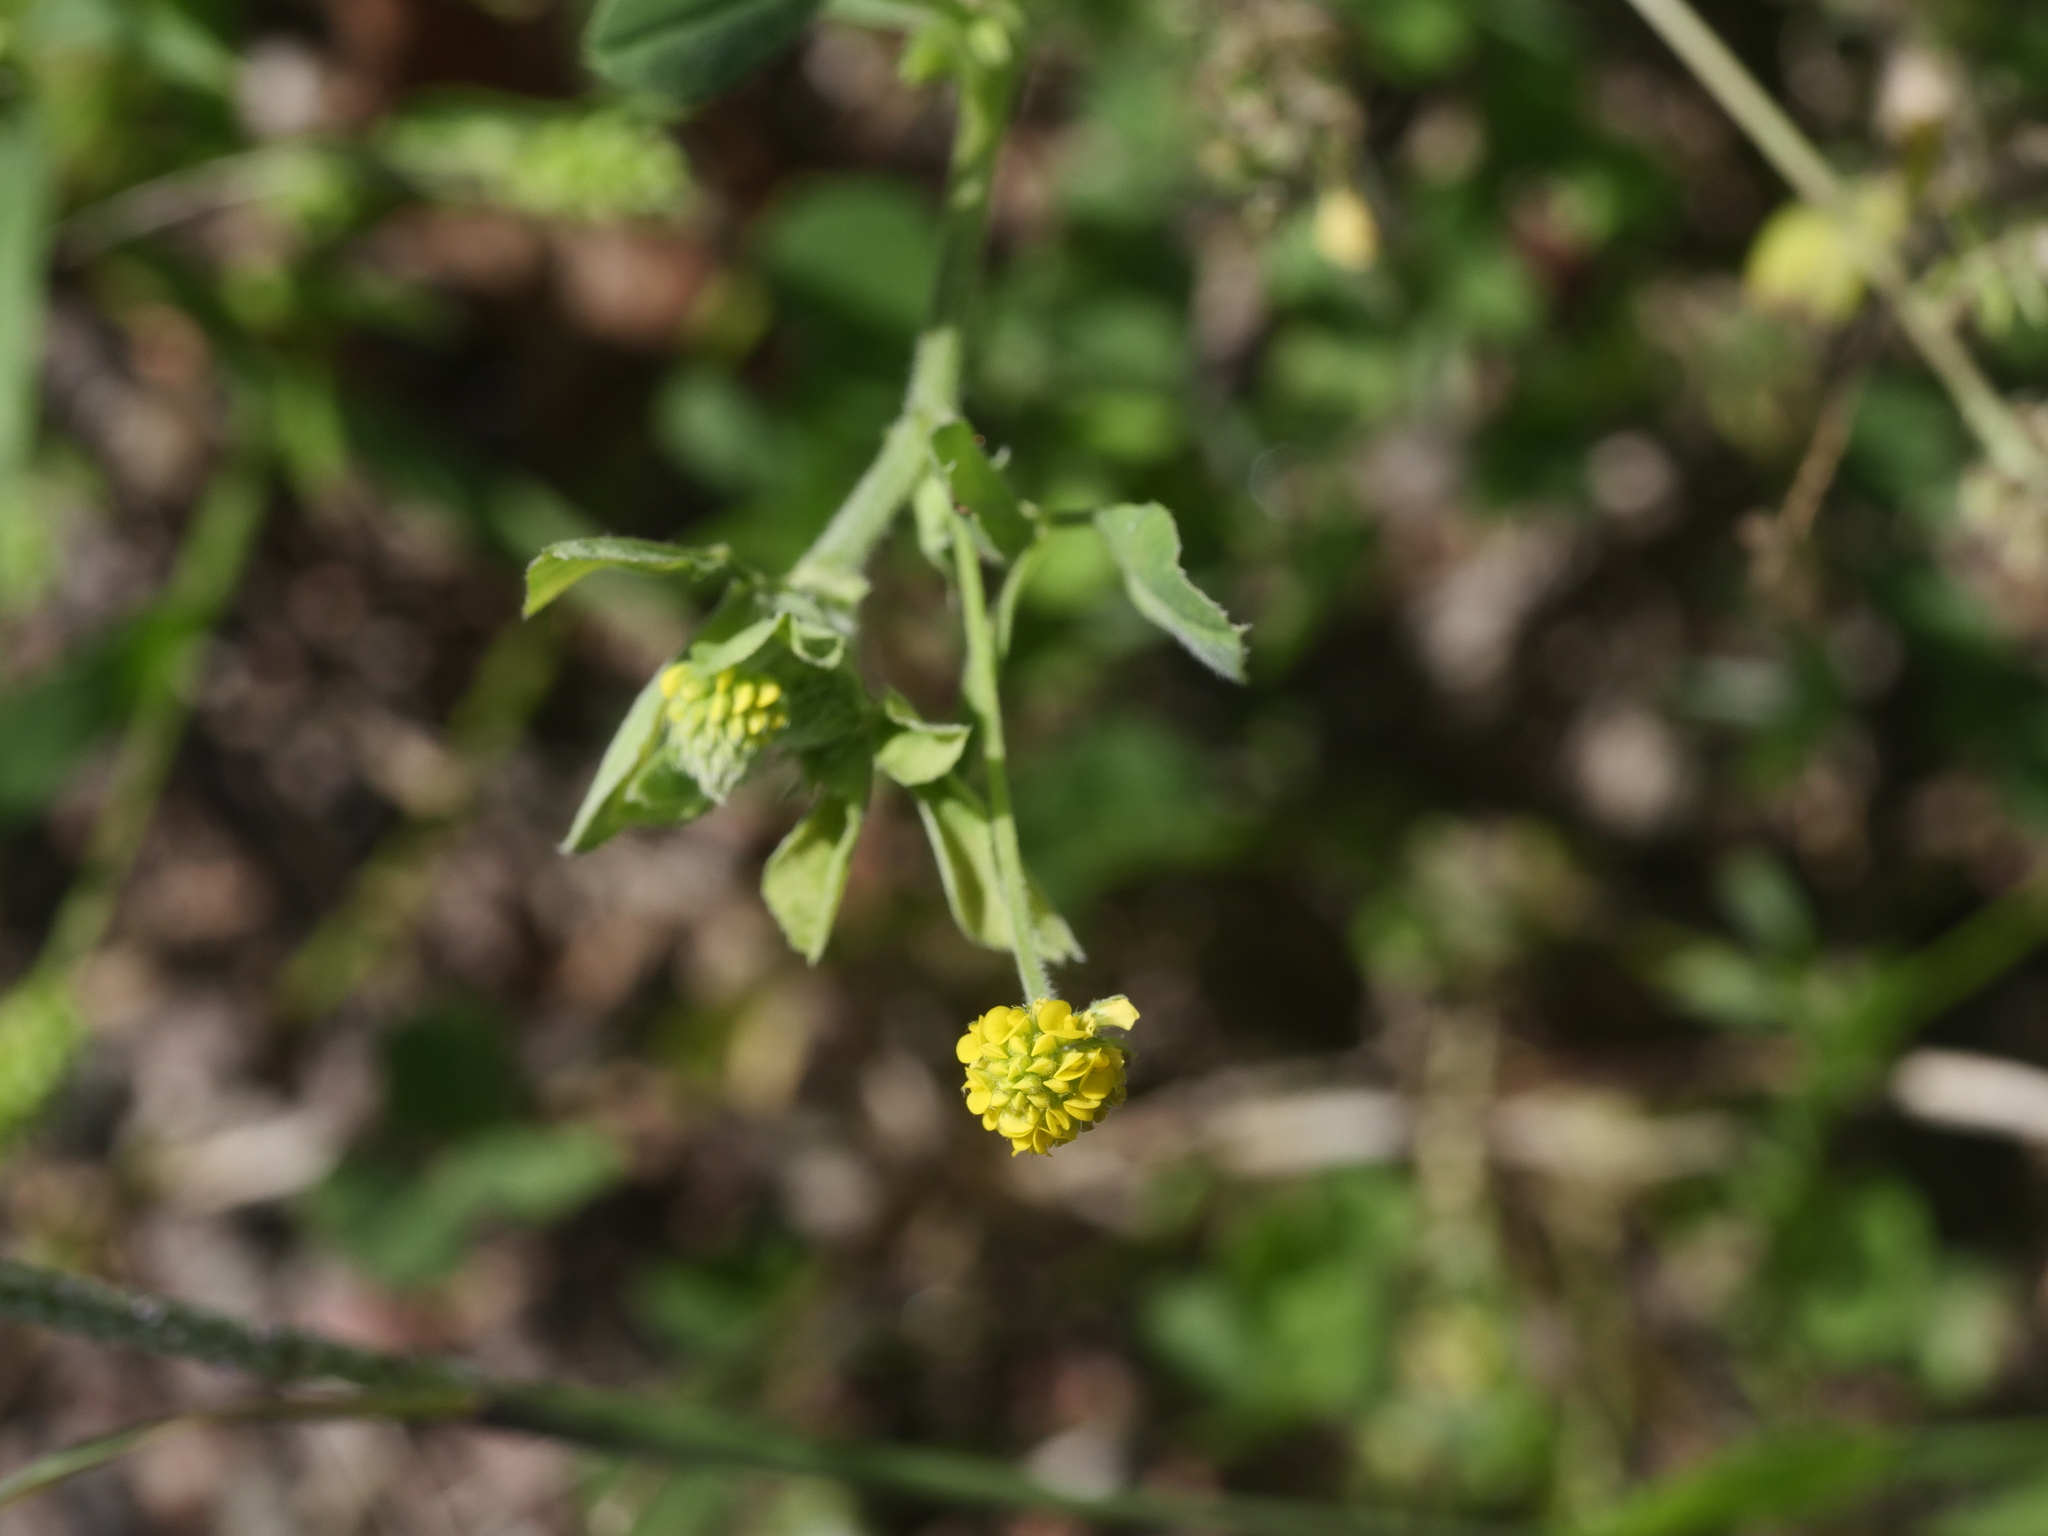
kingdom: Plantae
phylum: Tracheophyta
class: Magnoliopsida
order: Fabales
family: Fabaceae
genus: Medicago
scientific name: Medicago lupulina
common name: Black medick
